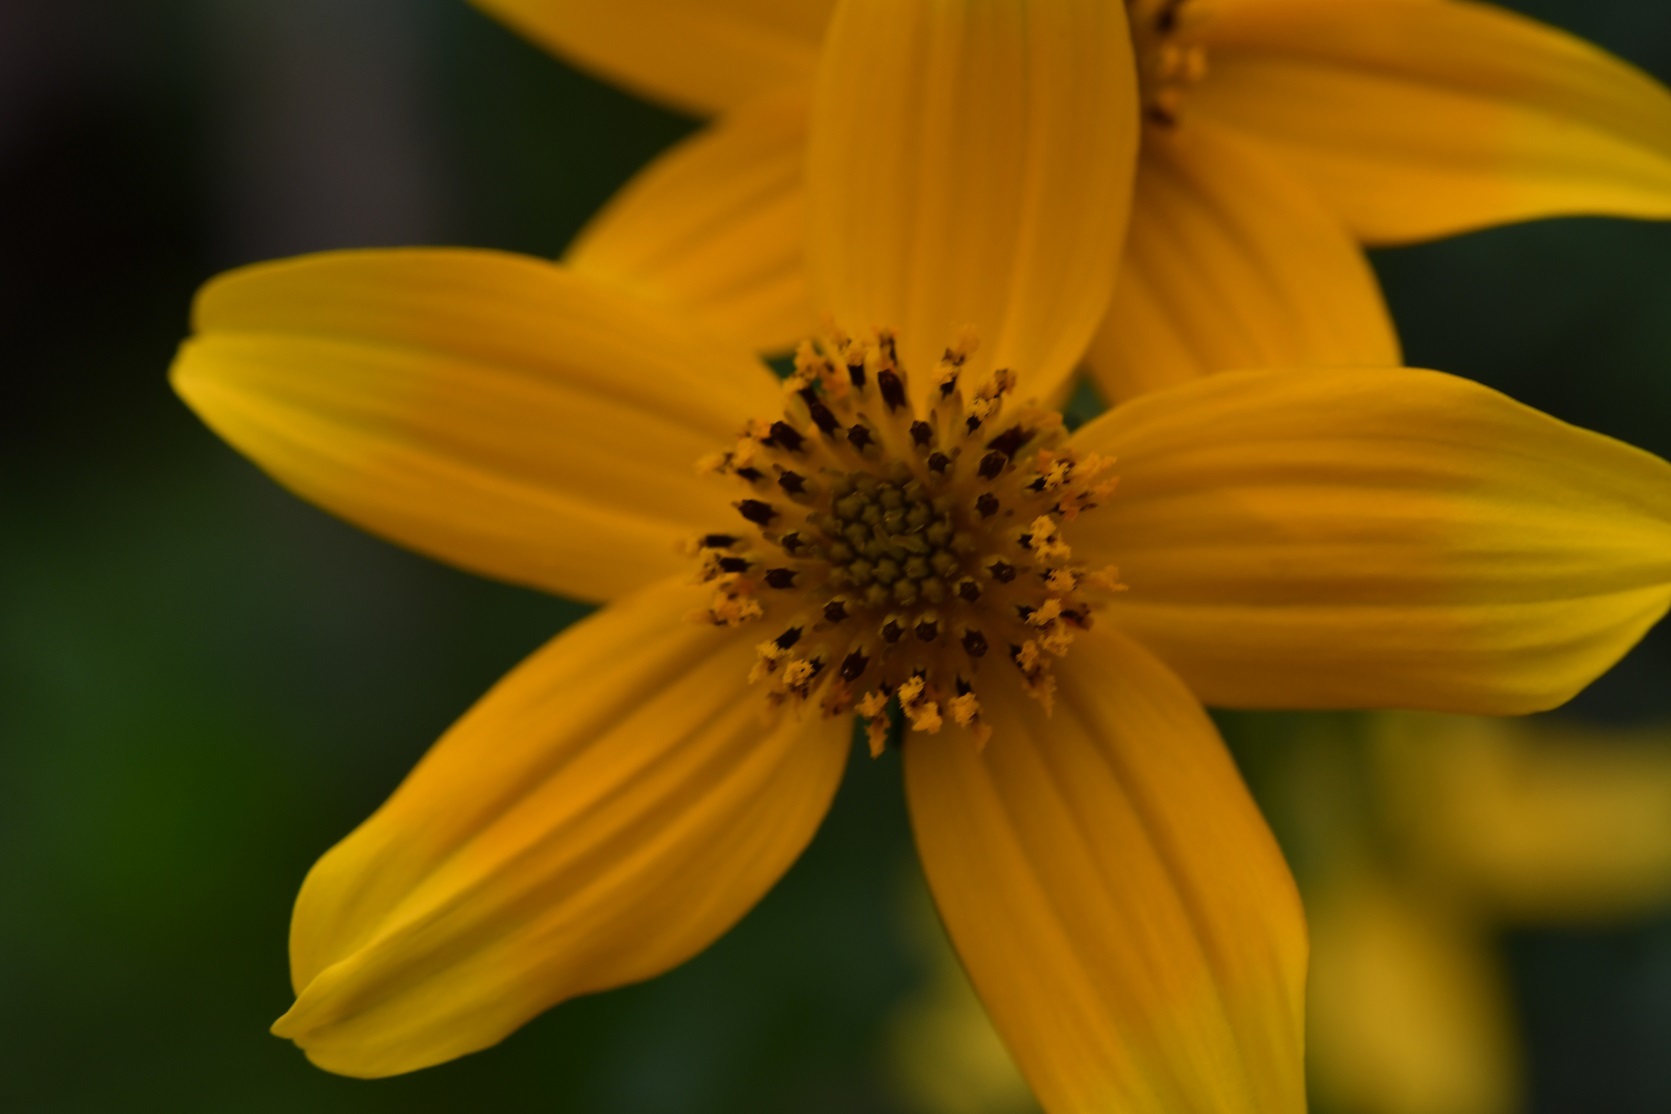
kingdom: Plantae
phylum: Tracheophyta
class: Magnoliopsida
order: Asterales
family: Asteraceae
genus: Bidens
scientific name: Bidens ballsii
